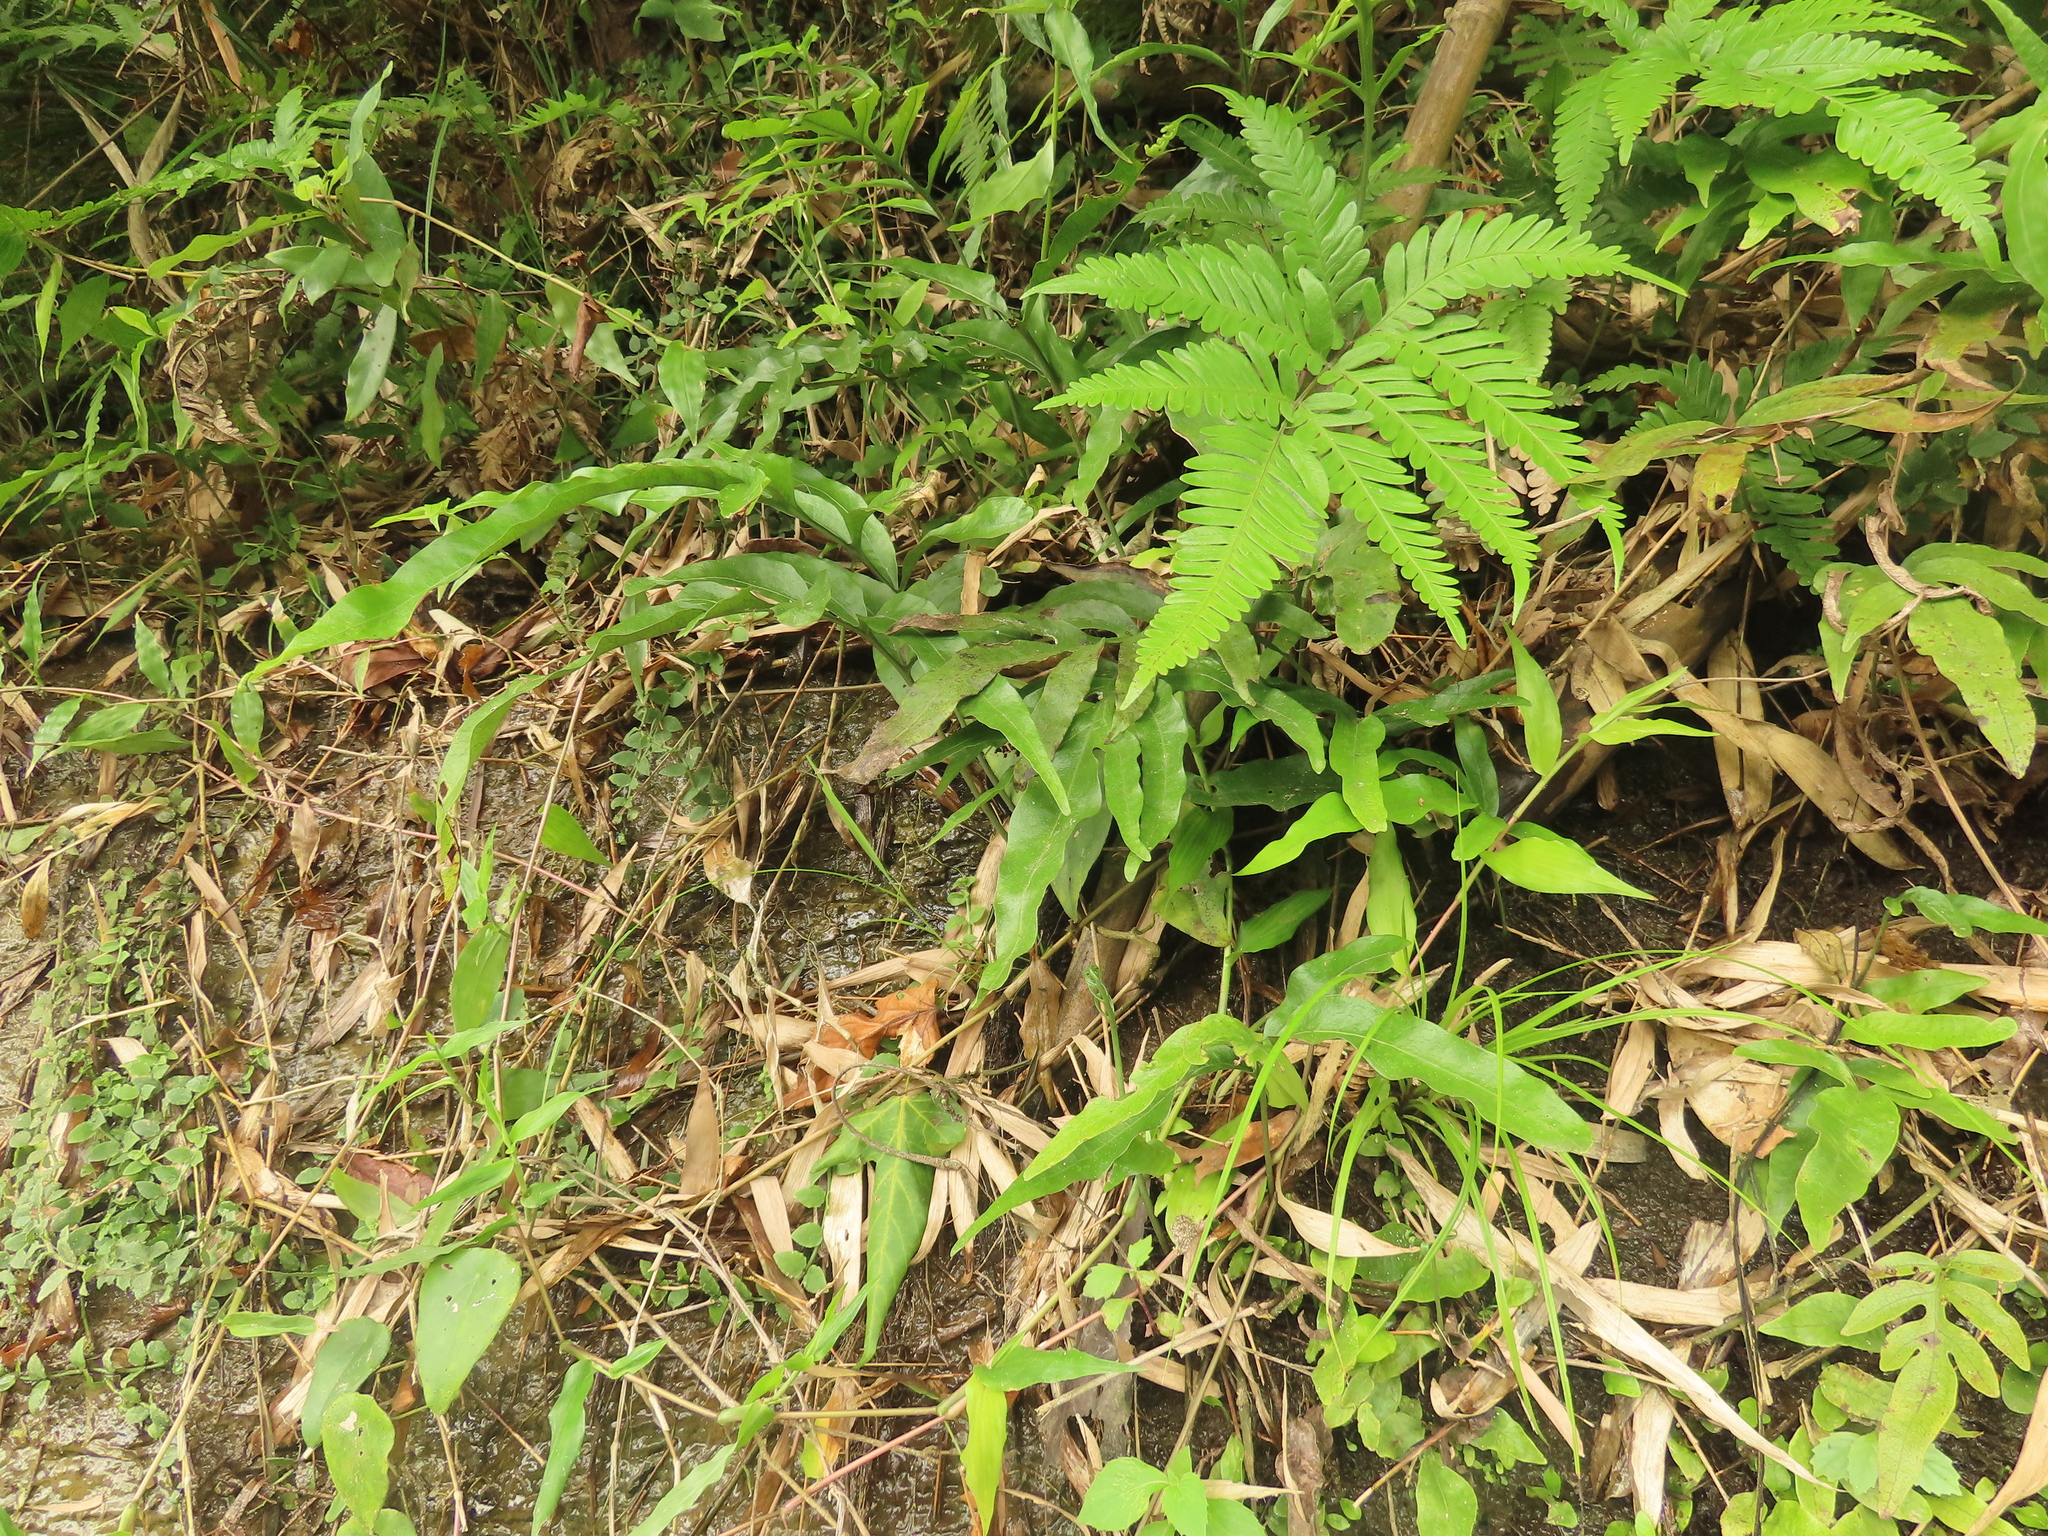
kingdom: Plantae
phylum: Tracheophyta
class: Polypodiopsida
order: Polypodiales
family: Polypodiaceae
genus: Leptochilus
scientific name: Leptochilus ellipticus
